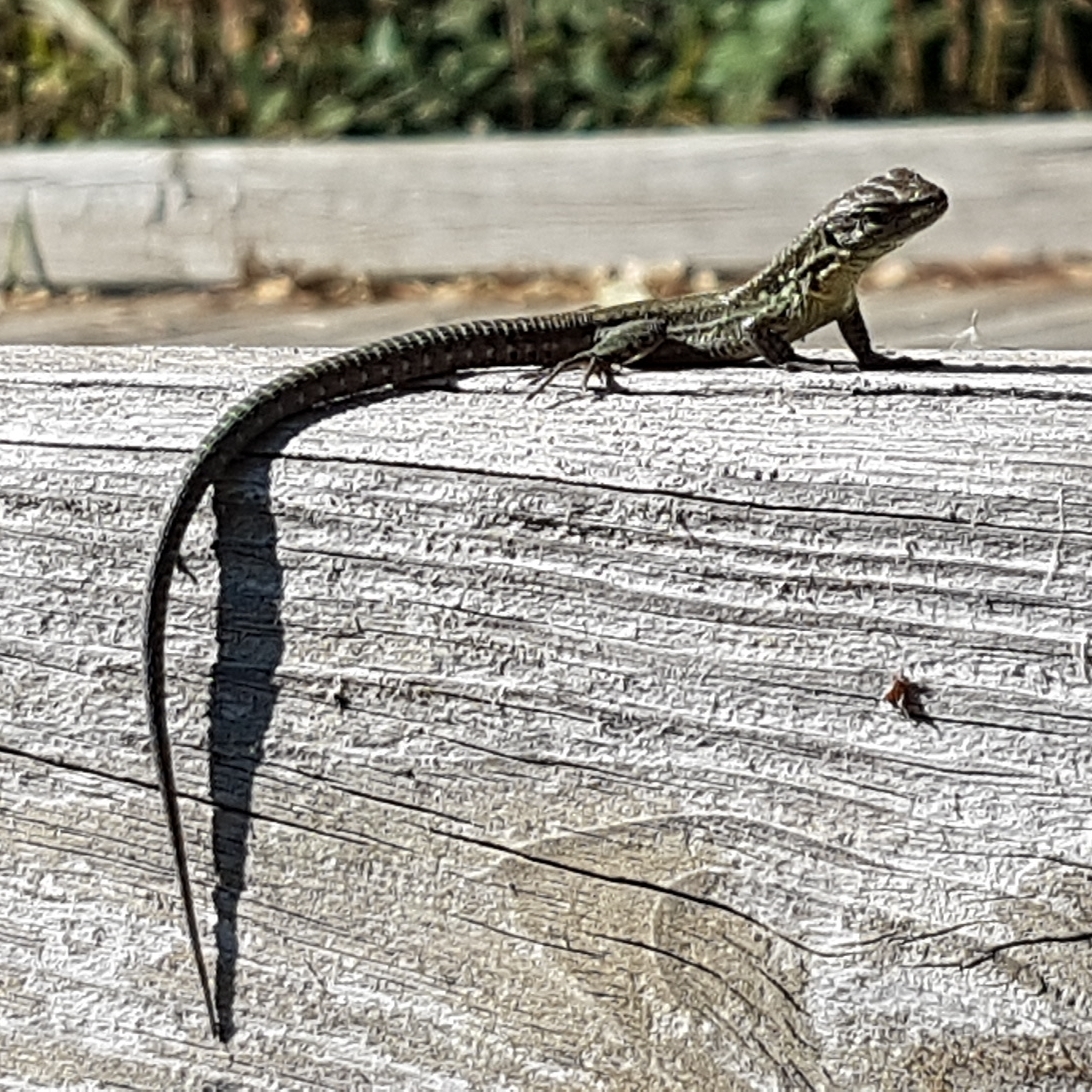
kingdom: Animalia
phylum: Chordata
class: Squamata
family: Lacertidae
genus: Podarcis
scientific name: Podarcis muralis
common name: Common wall lizard
